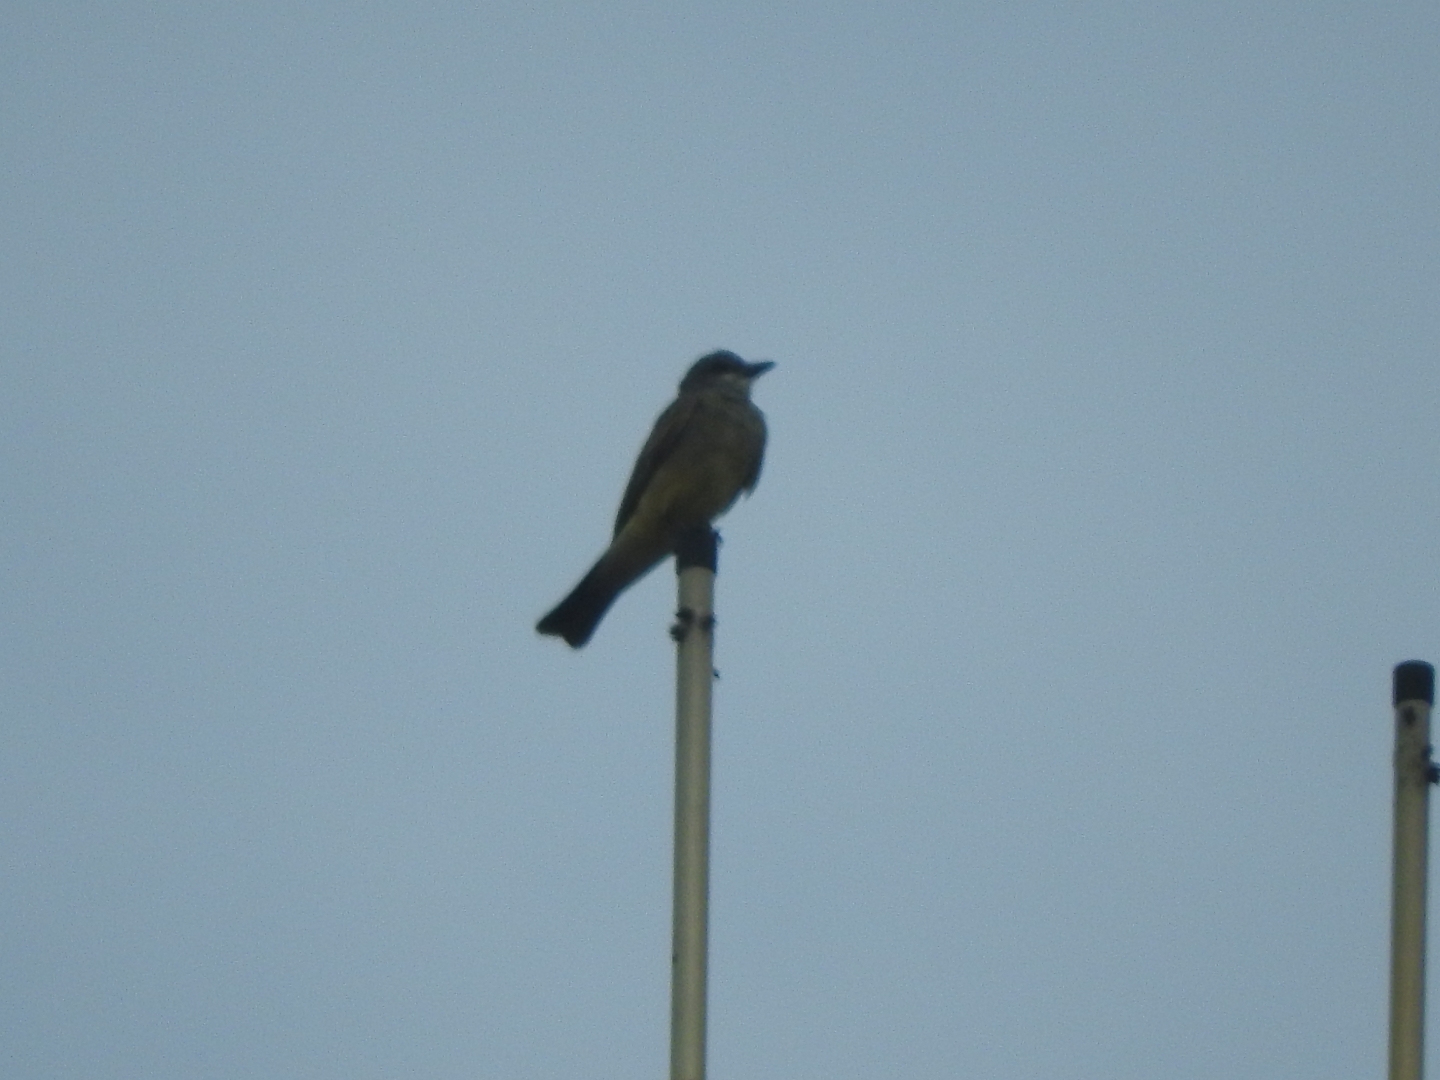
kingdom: Animalia
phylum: Chordata
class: Aves
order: Passeriformes
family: Tyrannidae
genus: Tyrannus
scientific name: Tyrannus vociferans
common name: Cassin's kingbird
